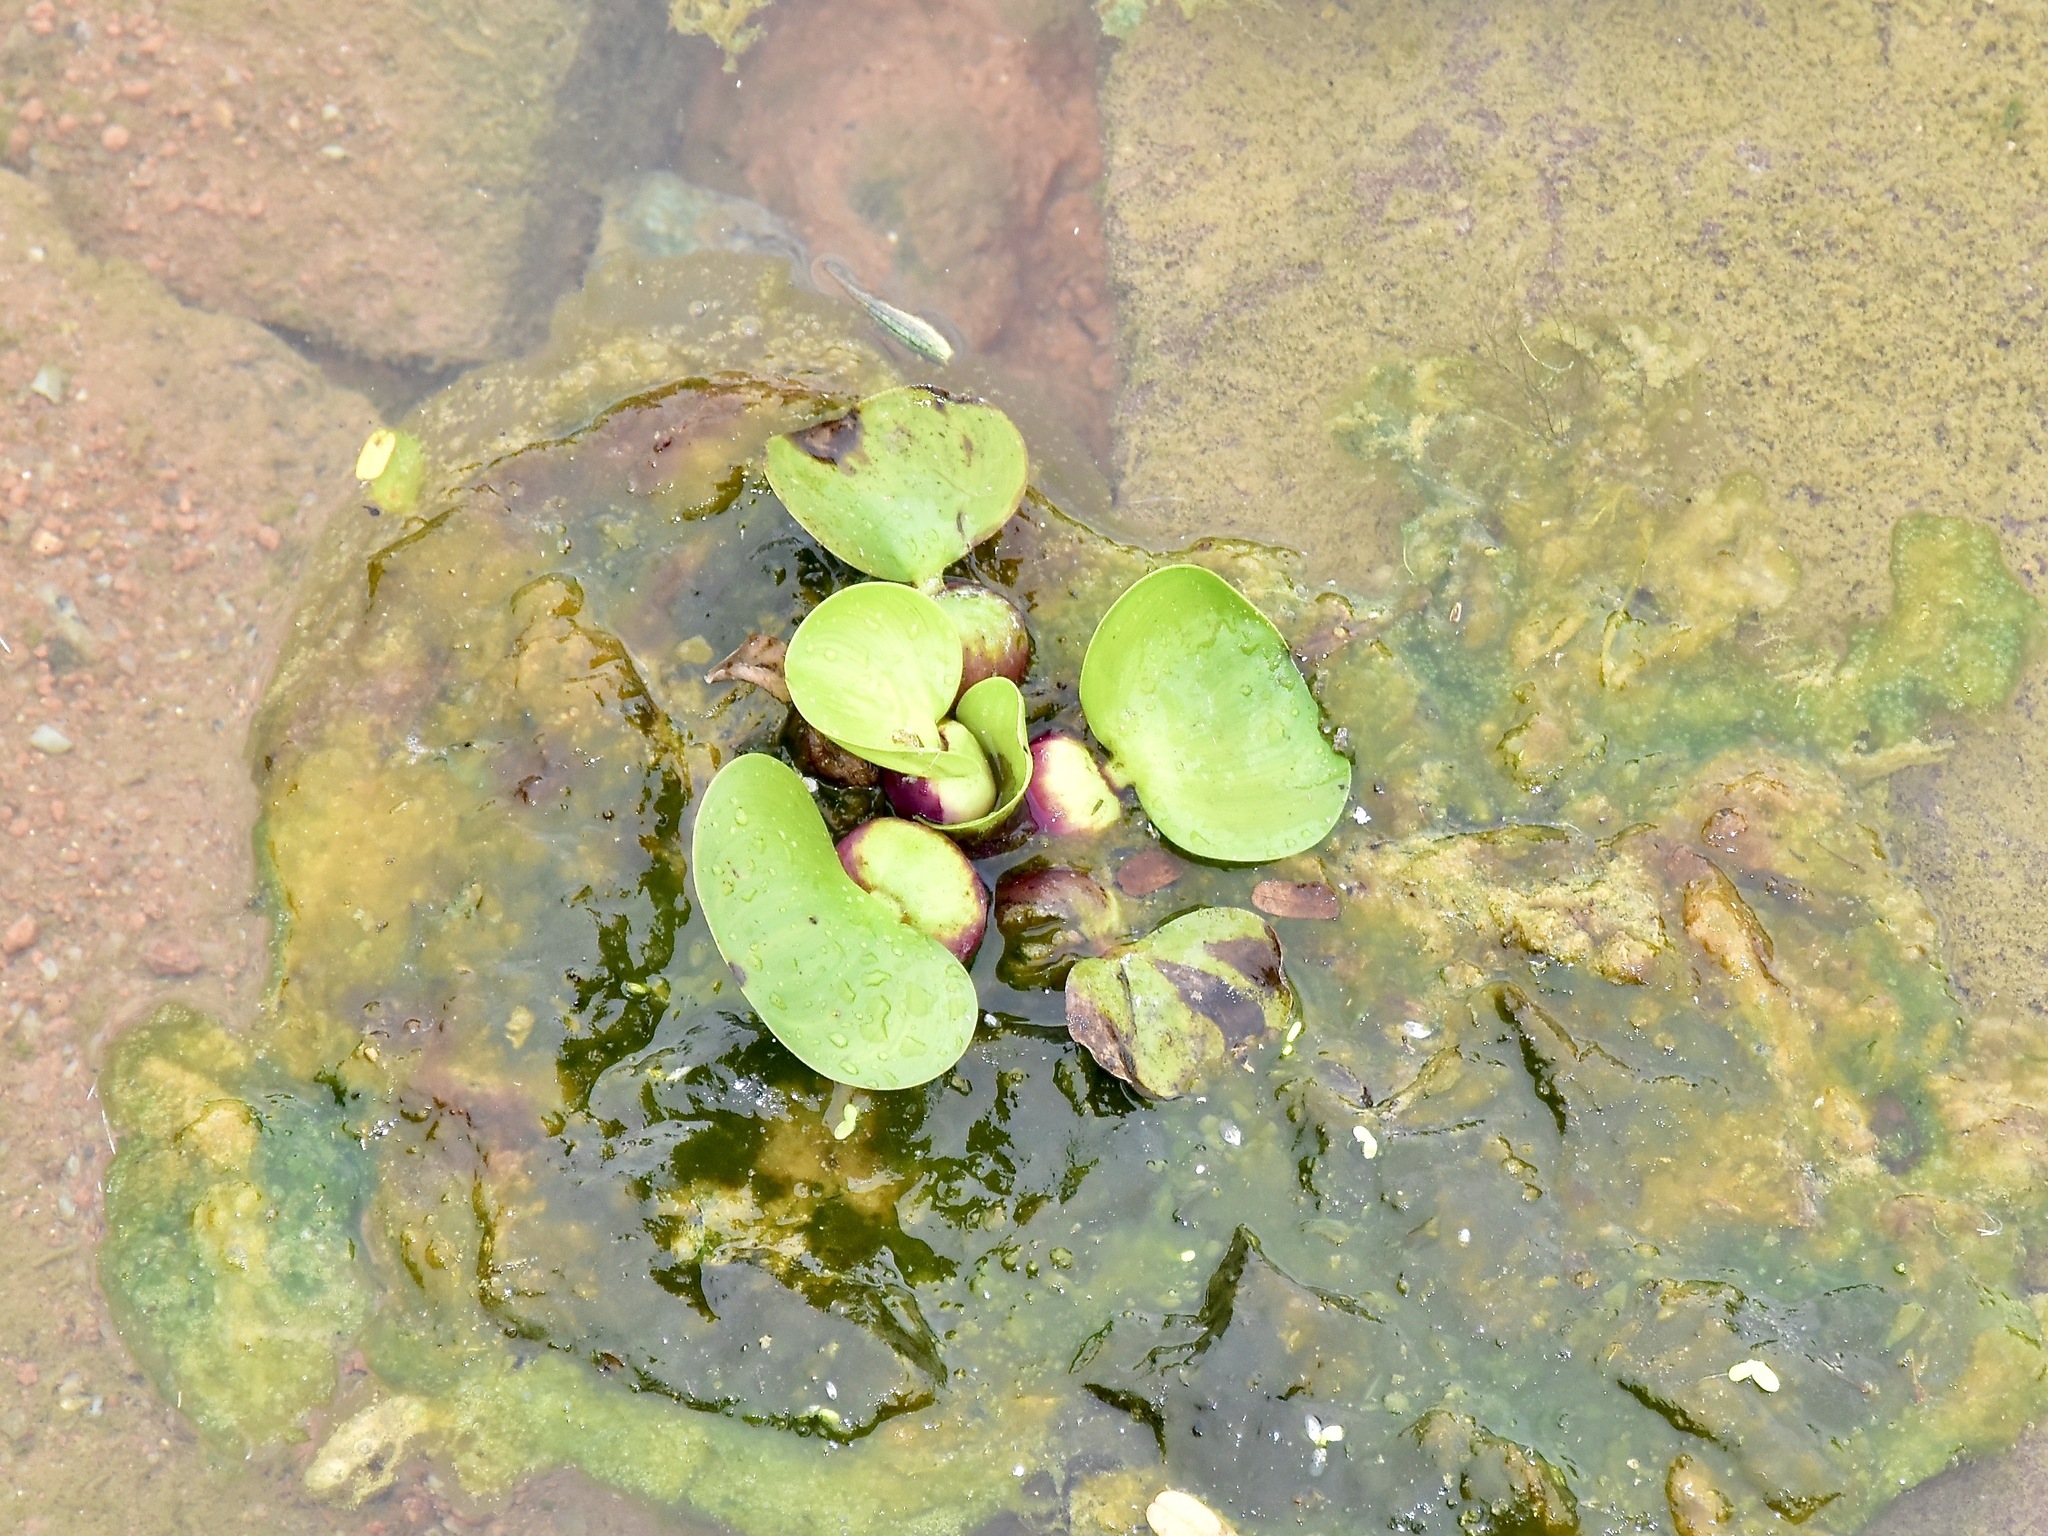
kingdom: Plantae
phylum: Tracheophyta
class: Liliopsida
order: Commelinales
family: Pontederiaceae
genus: Pontederia
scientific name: Pontederia crassipes
